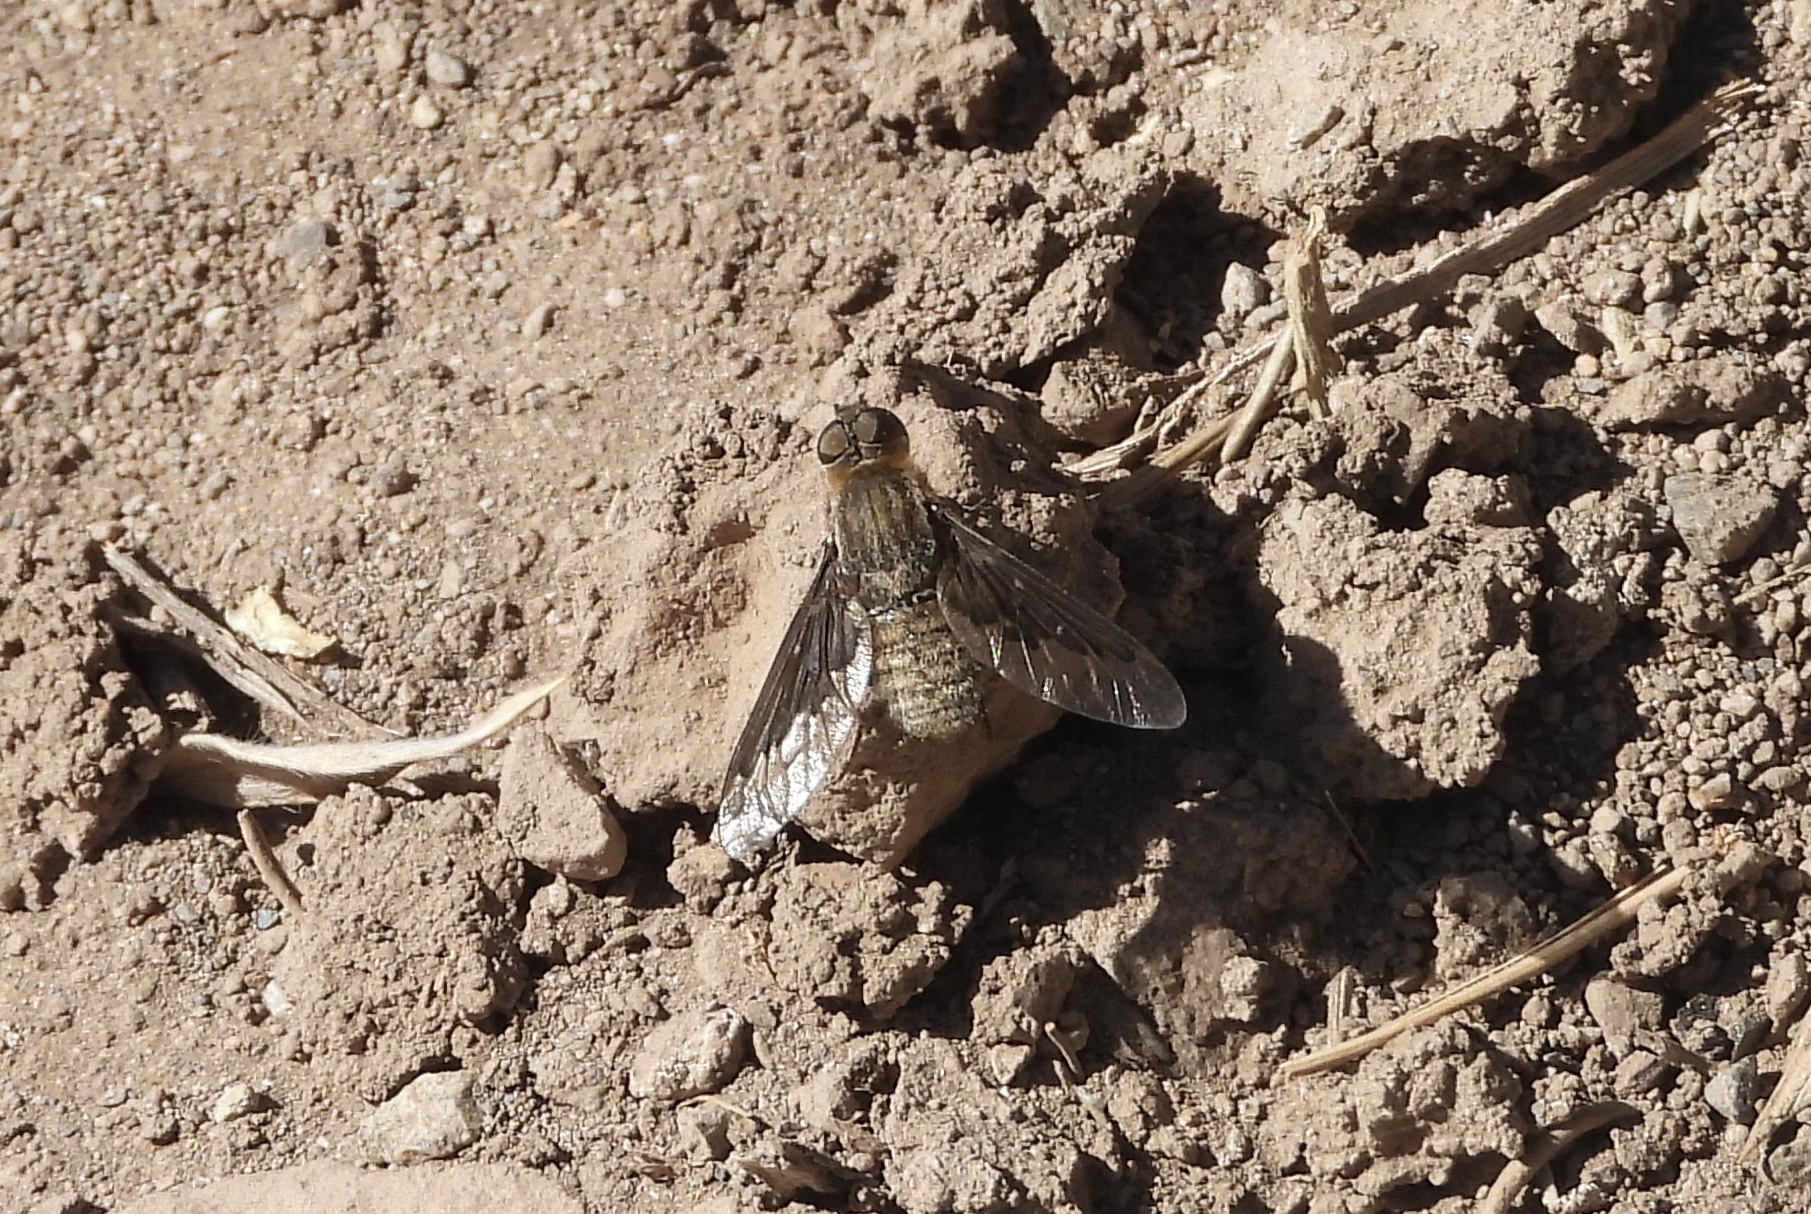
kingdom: Animalia
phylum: Arthropoda
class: Insecta
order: Diptera
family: Bombyliidae
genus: Hemipenthes
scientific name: Hemipenthes tenuirostris
